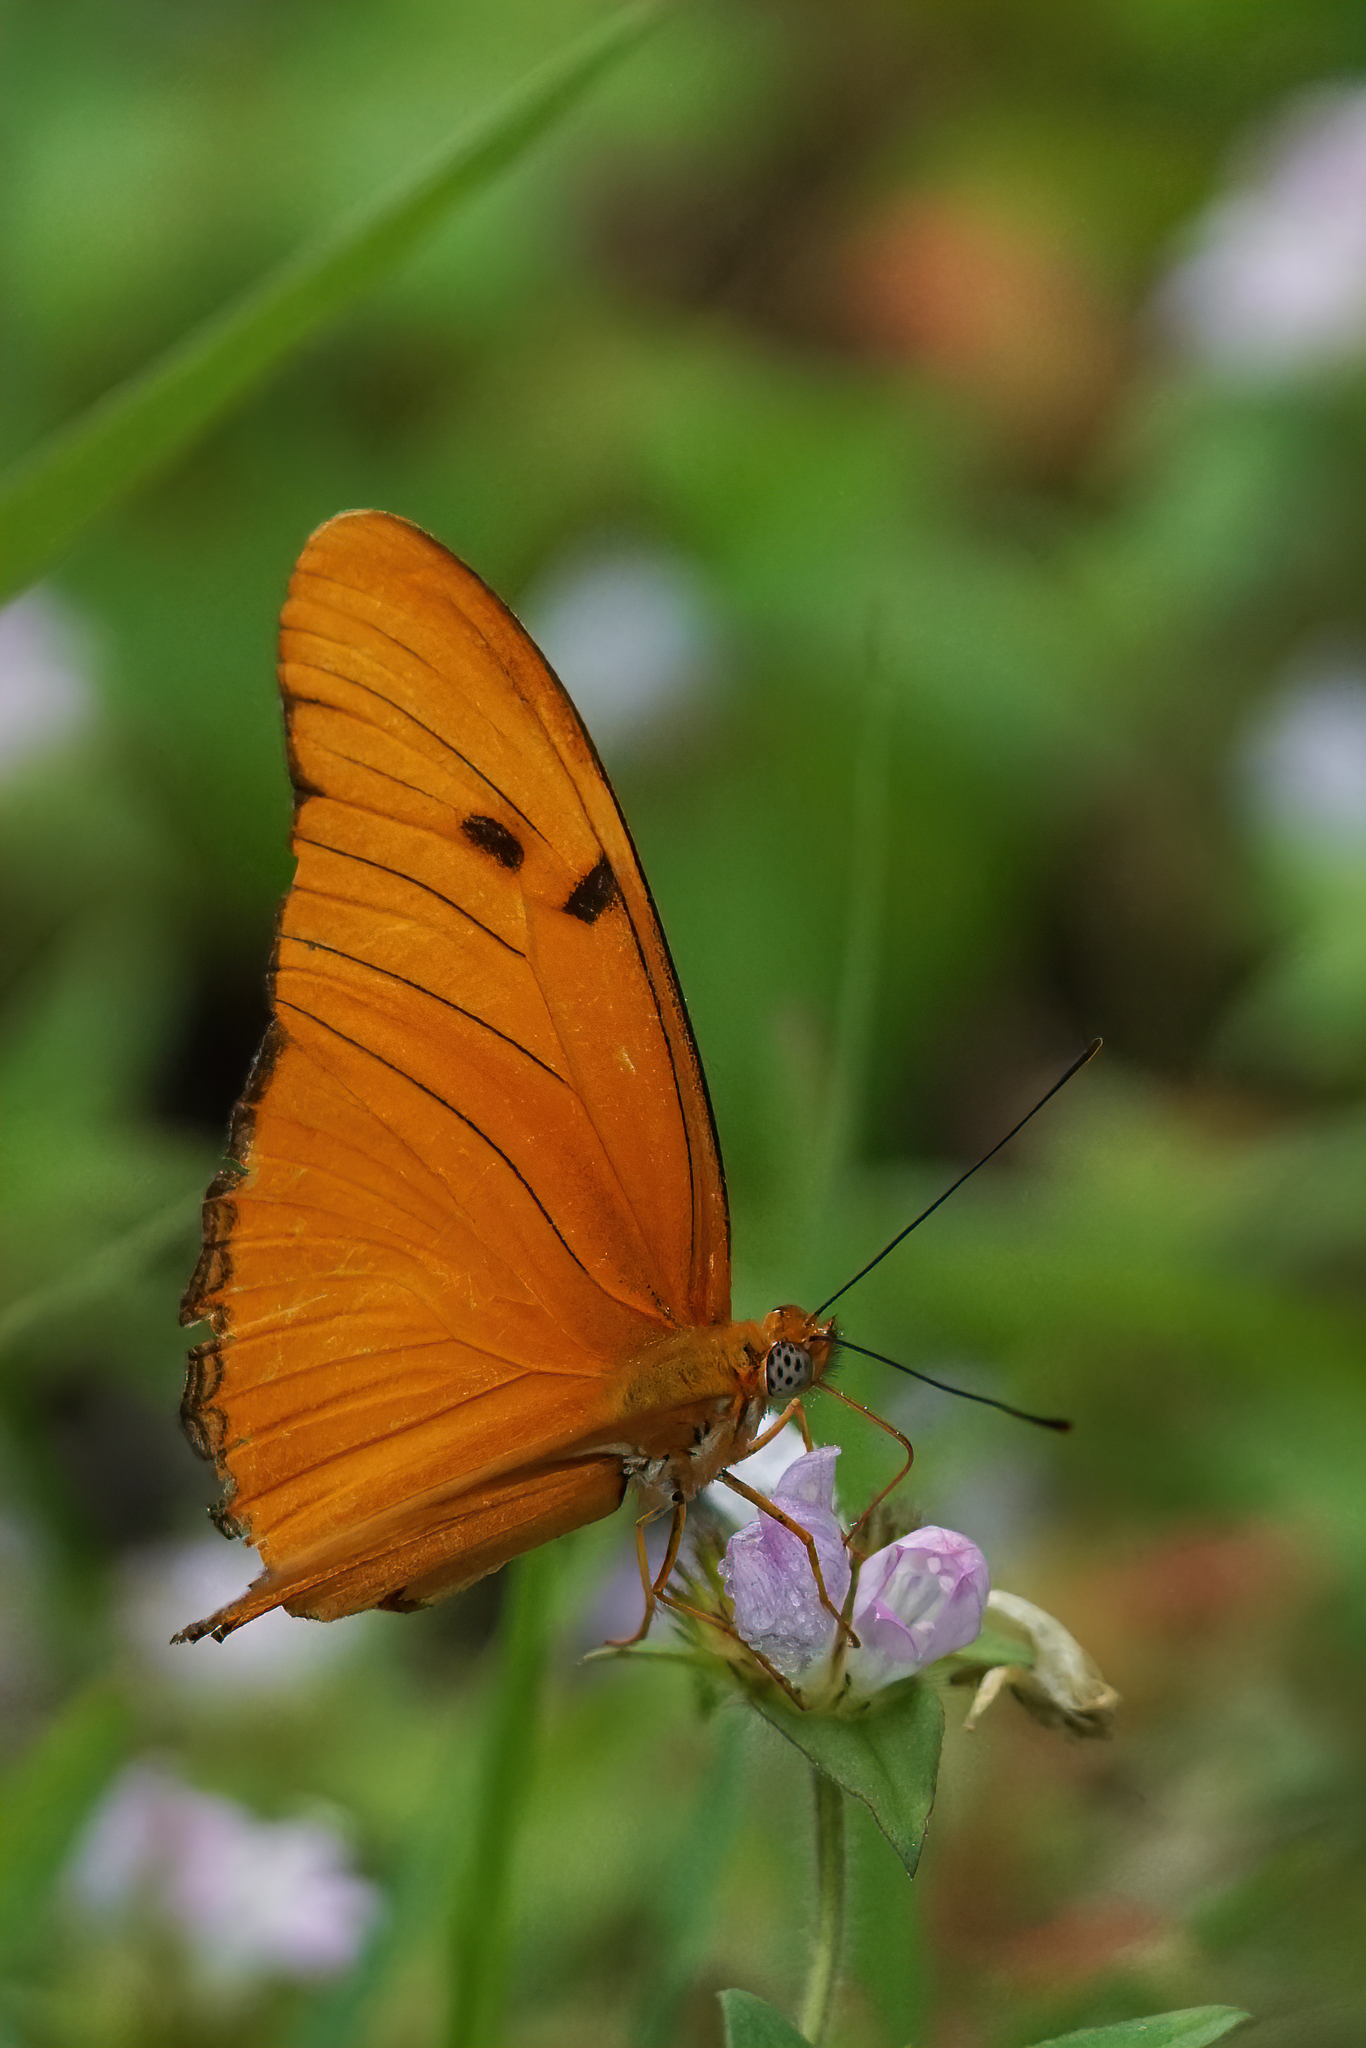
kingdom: Animalia
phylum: Arthropoda
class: Insecta
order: Lepidoptera
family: Nymphalidae
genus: Dryas
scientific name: Dryas iulia
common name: Flambeau
